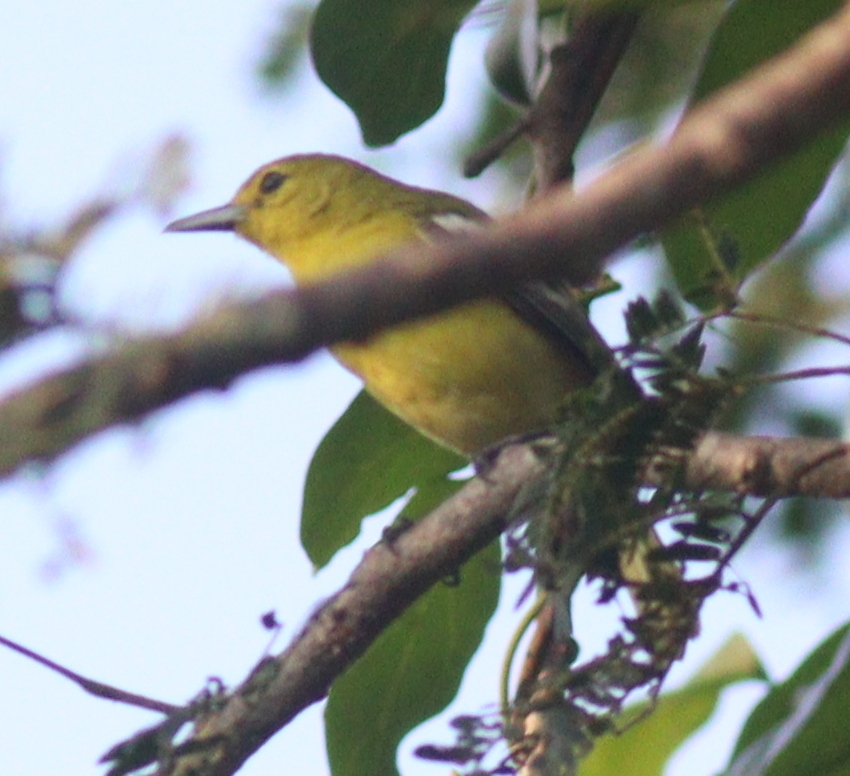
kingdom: Animalia
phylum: Chordata
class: Aves
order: Passeriformes
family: Aegithinidae
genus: Aegithina
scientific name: Aegithina tiphia
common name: Common iora
